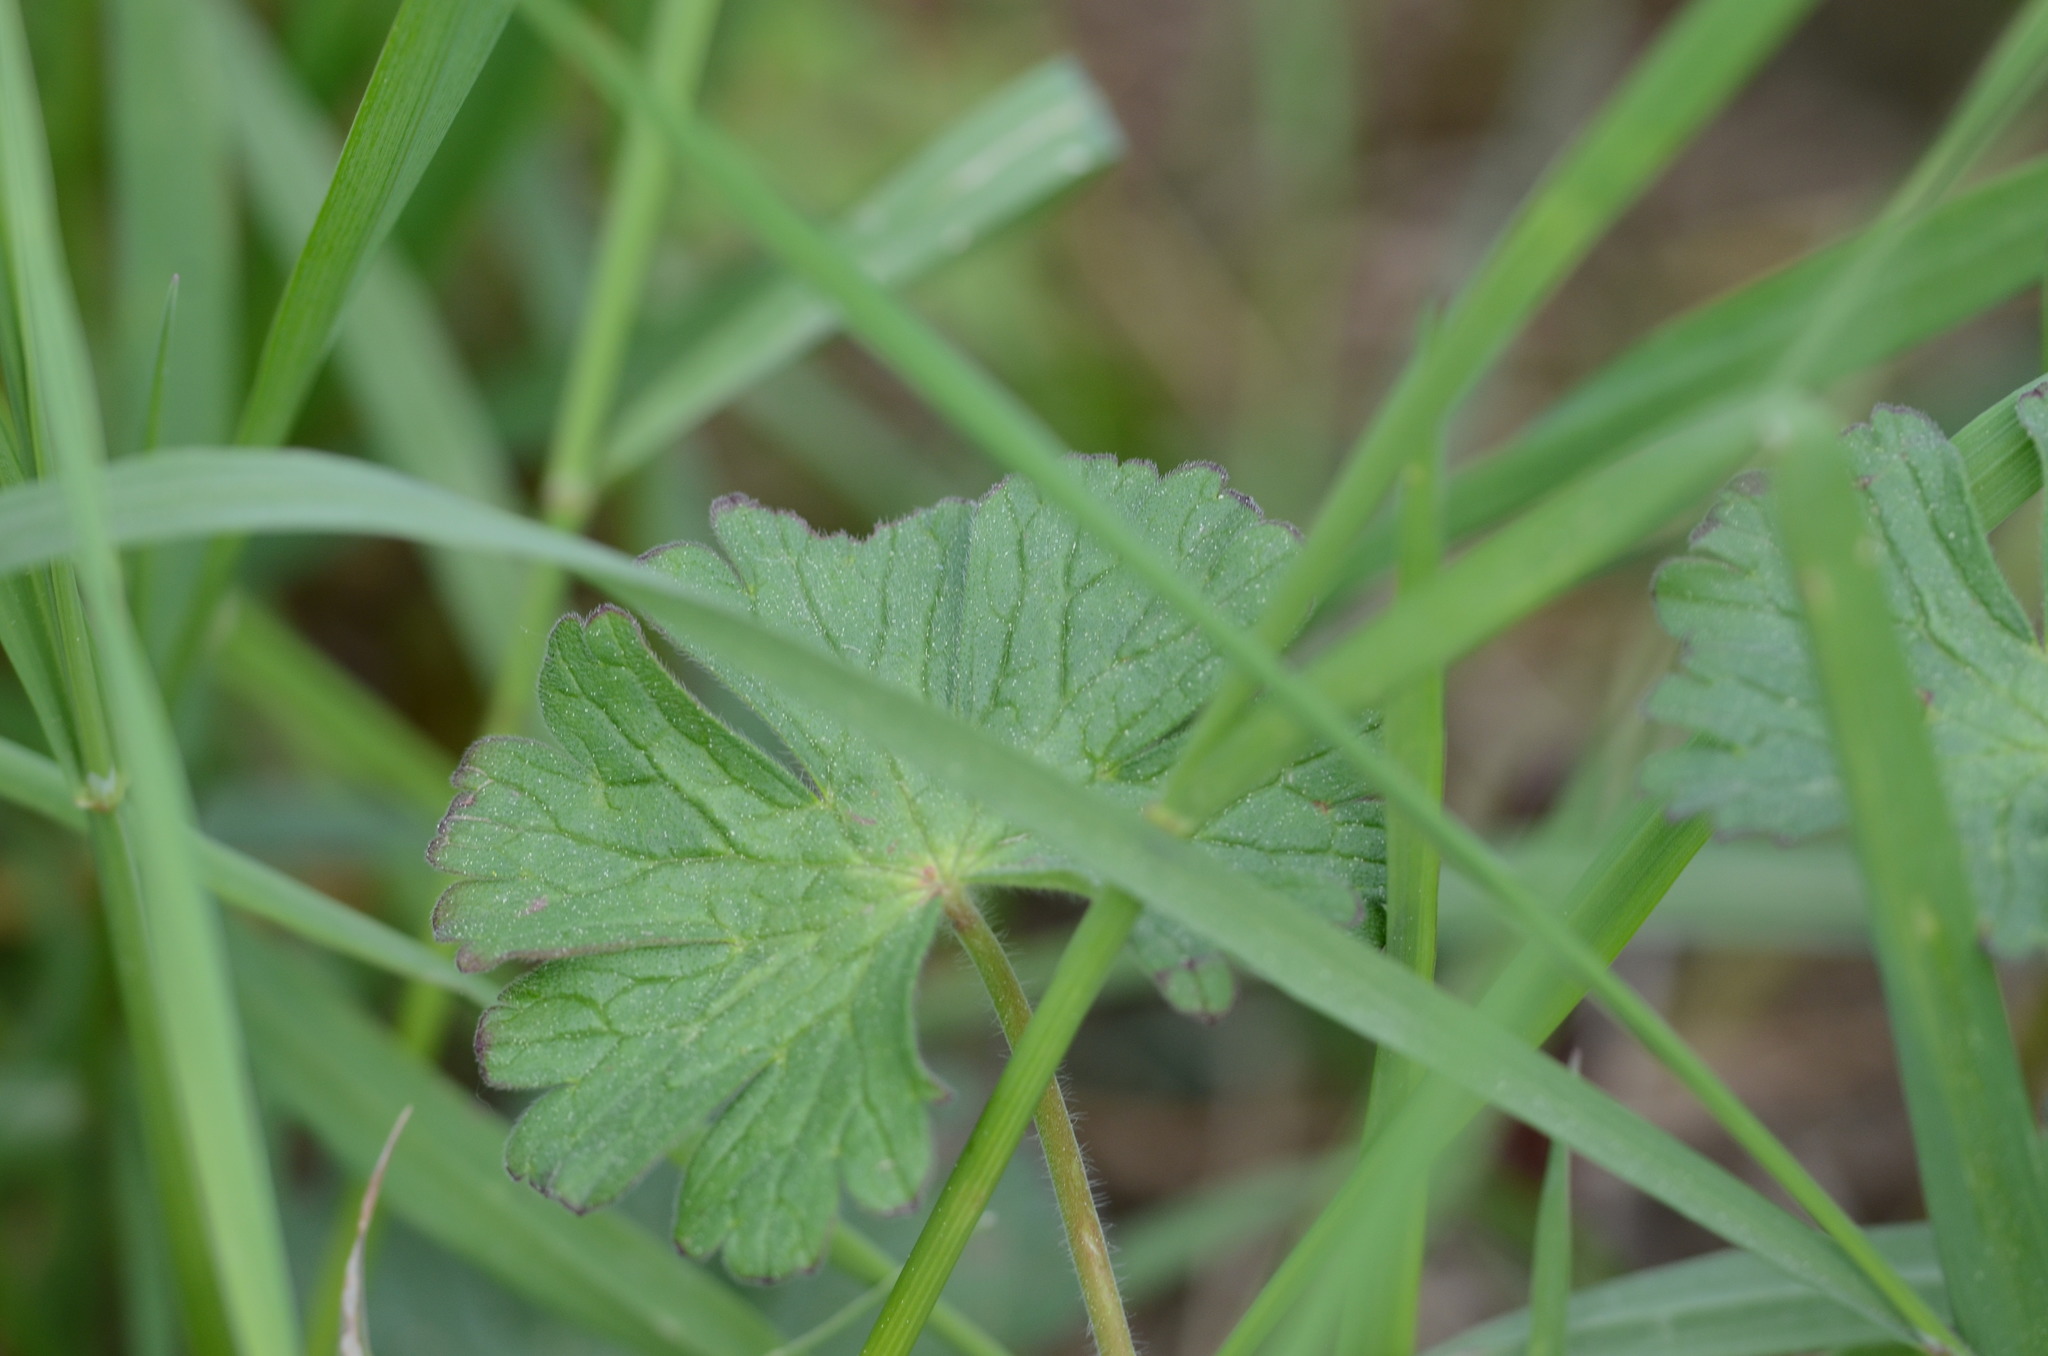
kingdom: Plantae
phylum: Tracheophyta
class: Magnoliopsida
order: Geraniales
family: Geraniaceae
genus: Geranium
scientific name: Geranium pyrenaicum
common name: Hedgerow crane's-bill
